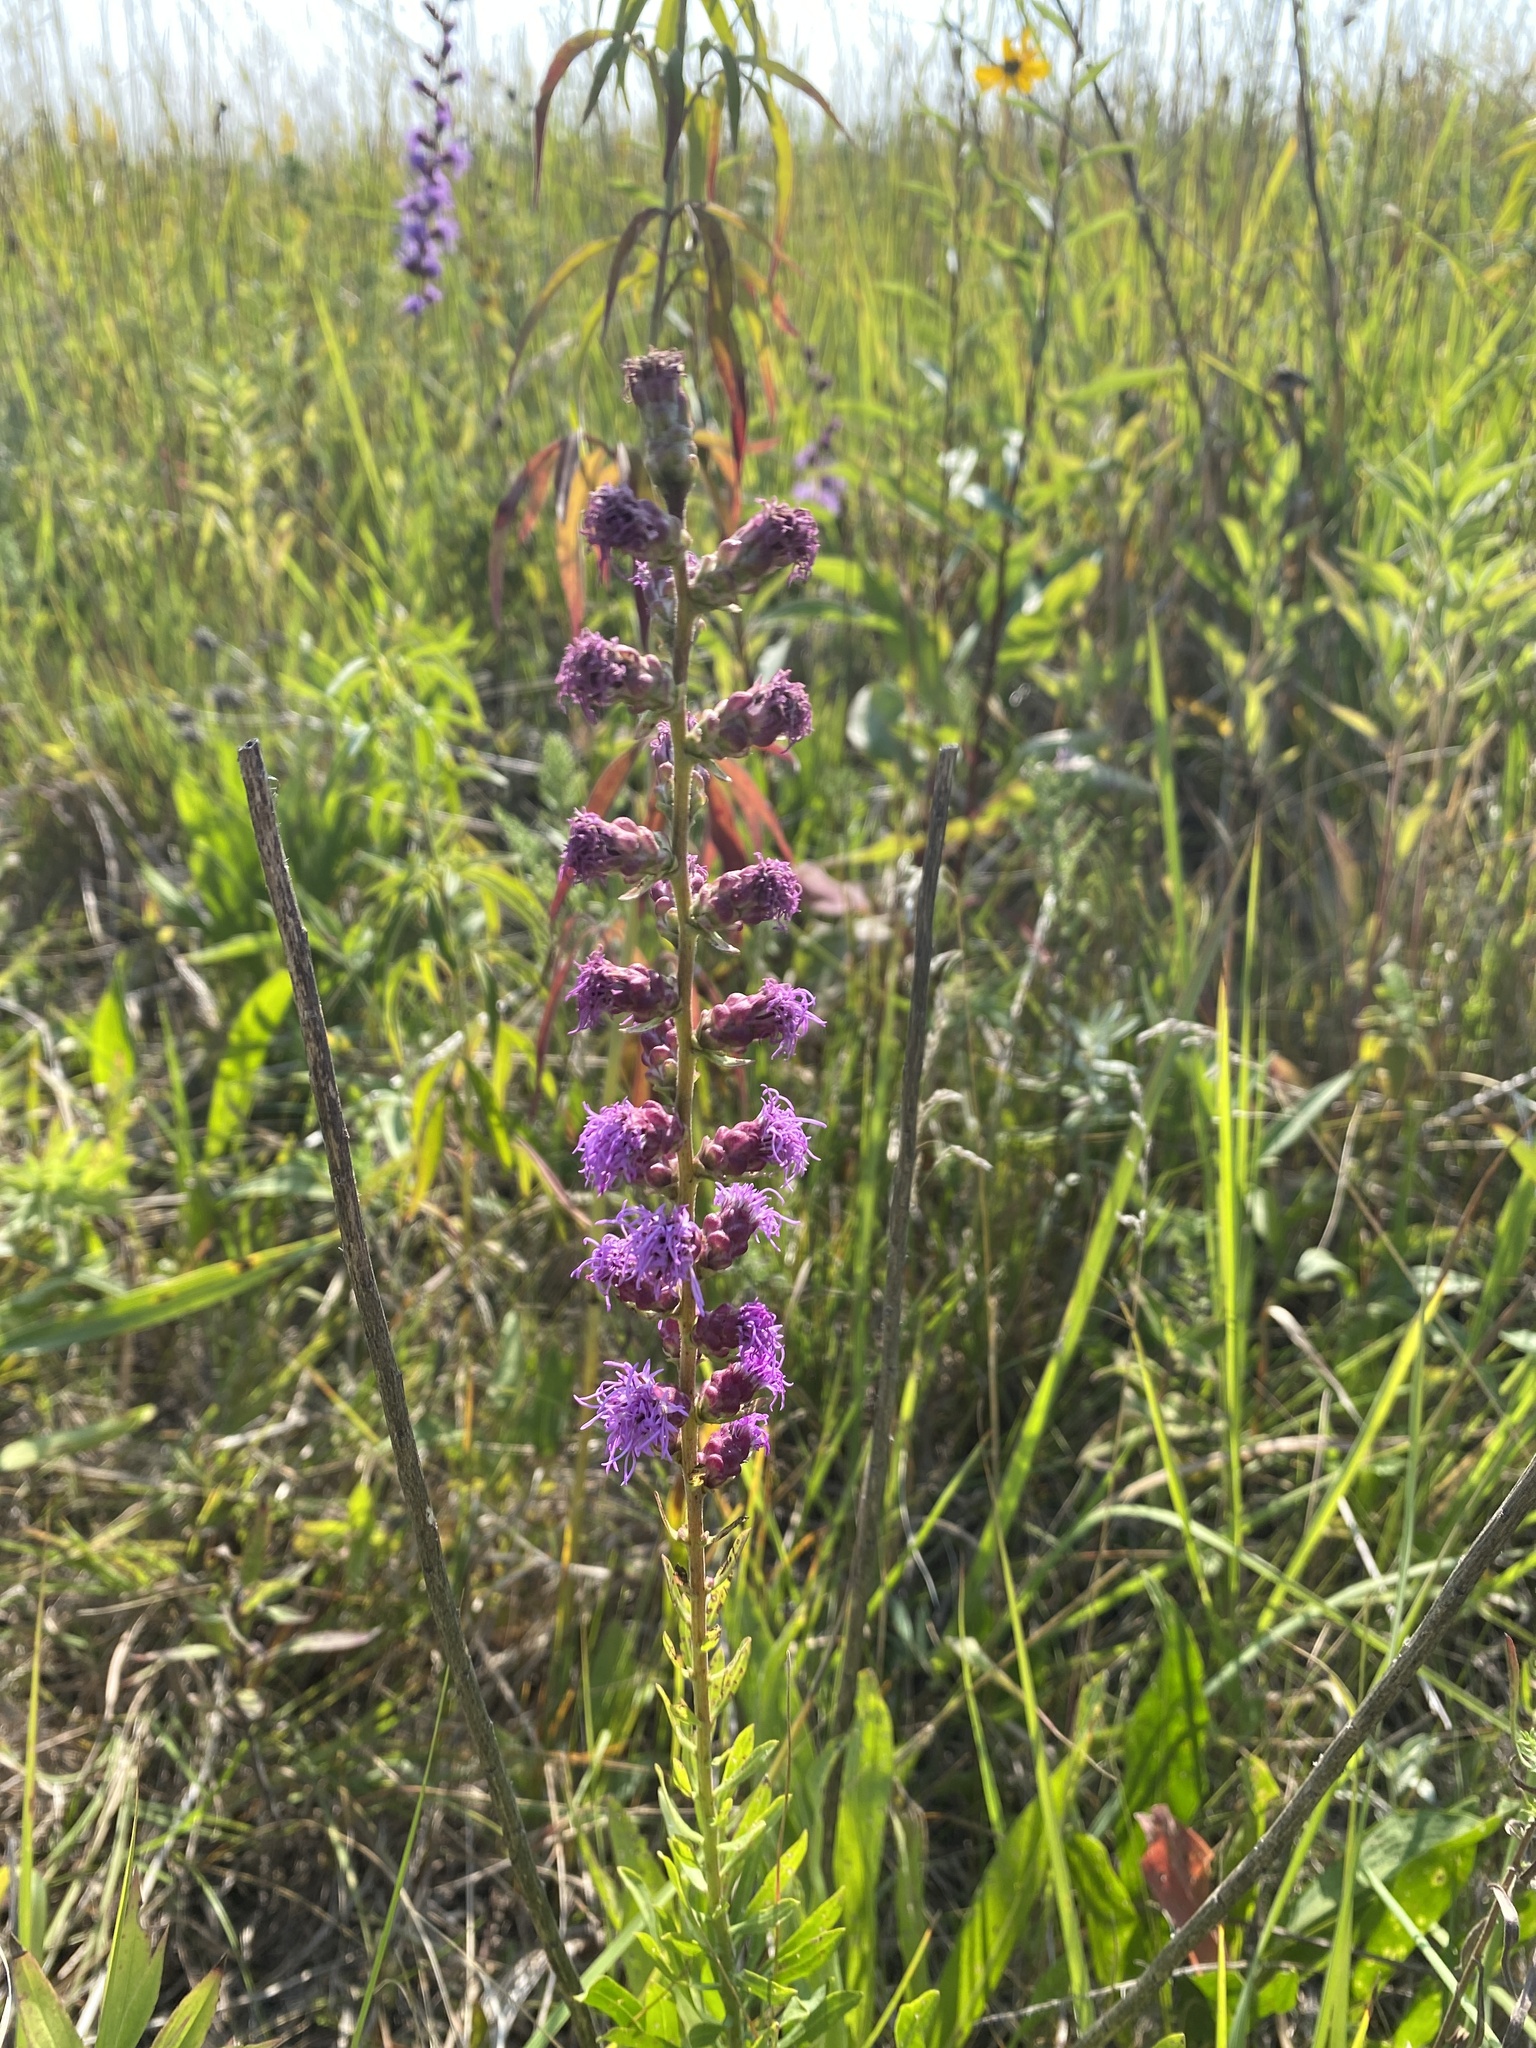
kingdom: Plantae
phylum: Tracheophyta
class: Magnoliopsida
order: Asterales
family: Asteraceae
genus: Liatris
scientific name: Liatris aspera
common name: Lacerate blazing-star
